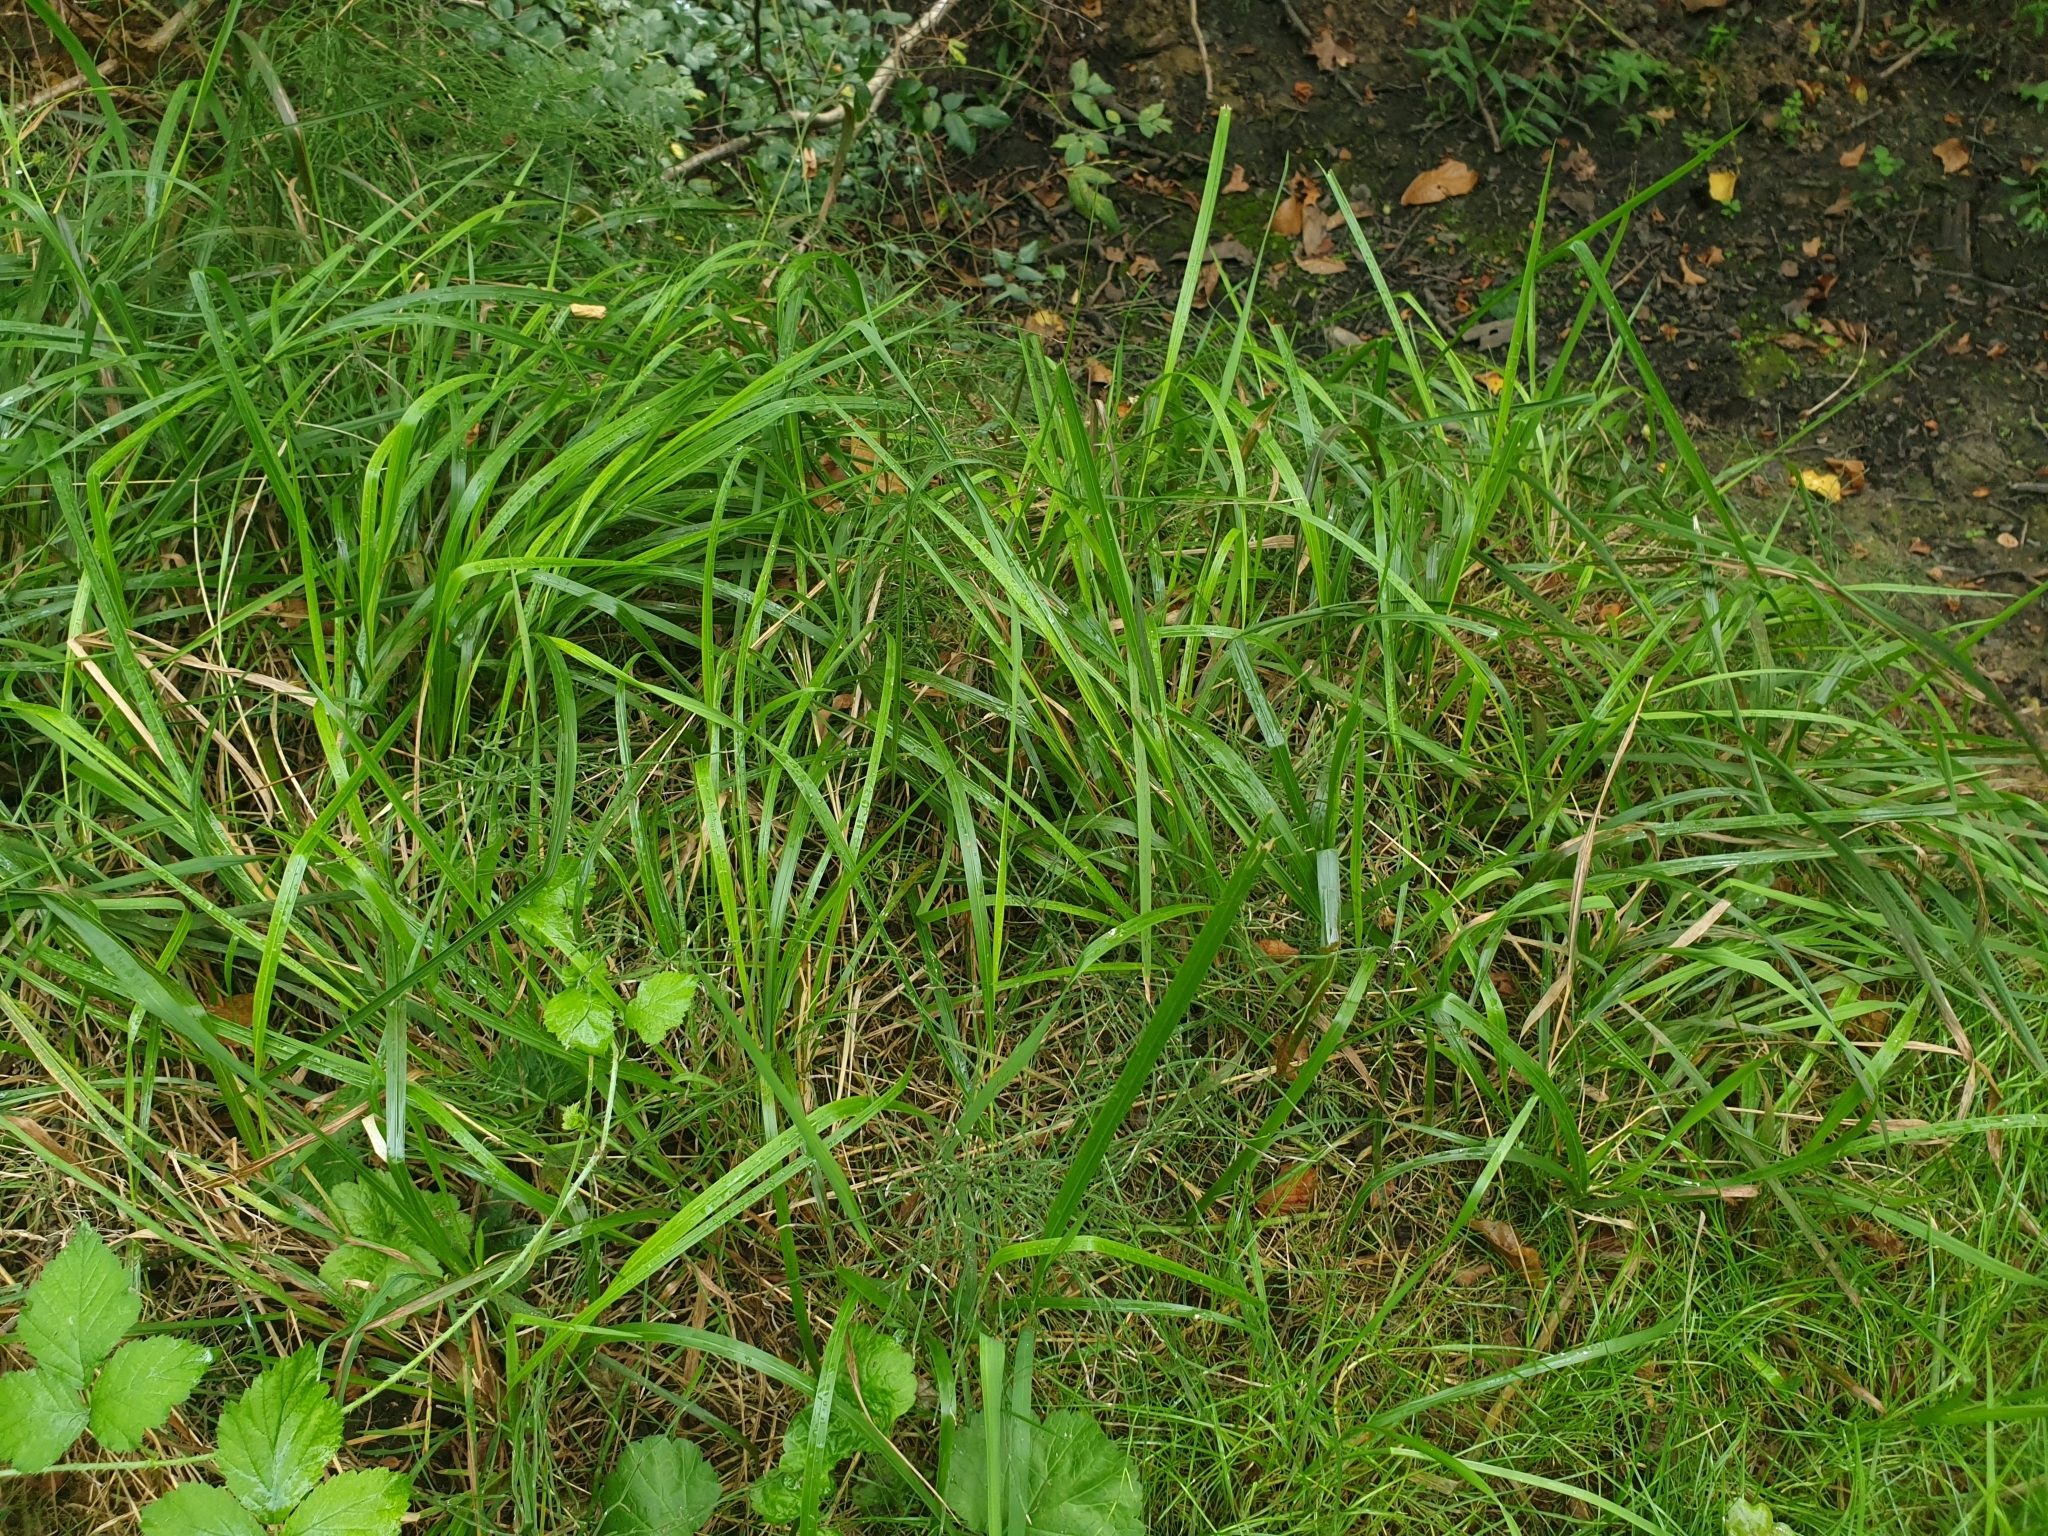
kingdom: Plantae
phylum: Tracheophyta
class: Liliopsida
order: Poales
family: Poaceae
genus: Brachypodium
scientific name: Brachypodium sylvaticum
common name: False-brome
